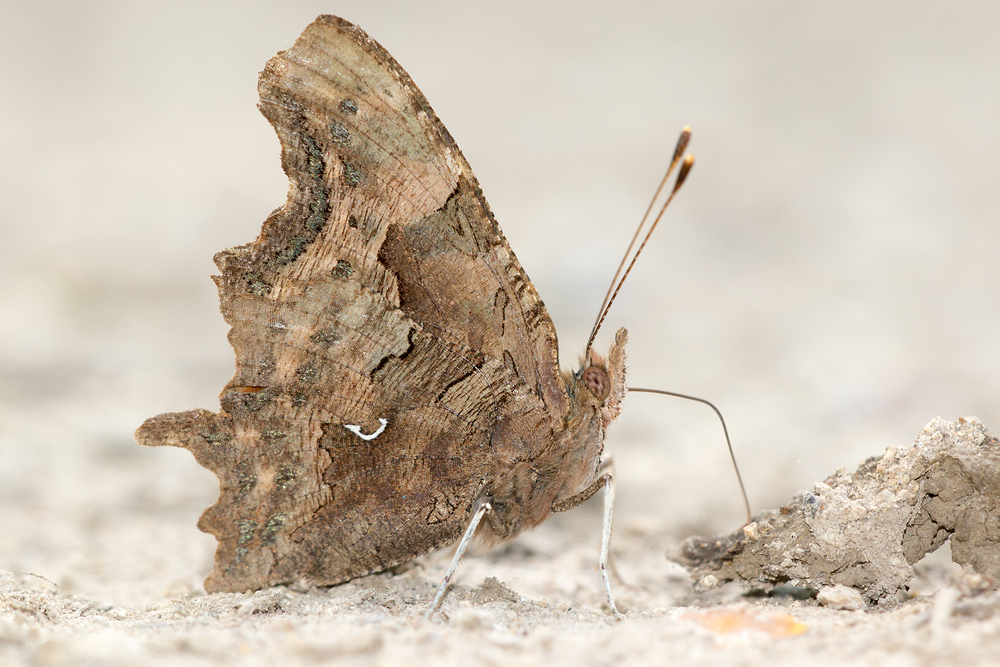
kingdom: Animalia
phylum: Arthropoda
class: Insecta
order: Lepidoptera
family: Nymphalidae
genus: Polygonia
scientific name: Polygonia c-album
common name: Comma
